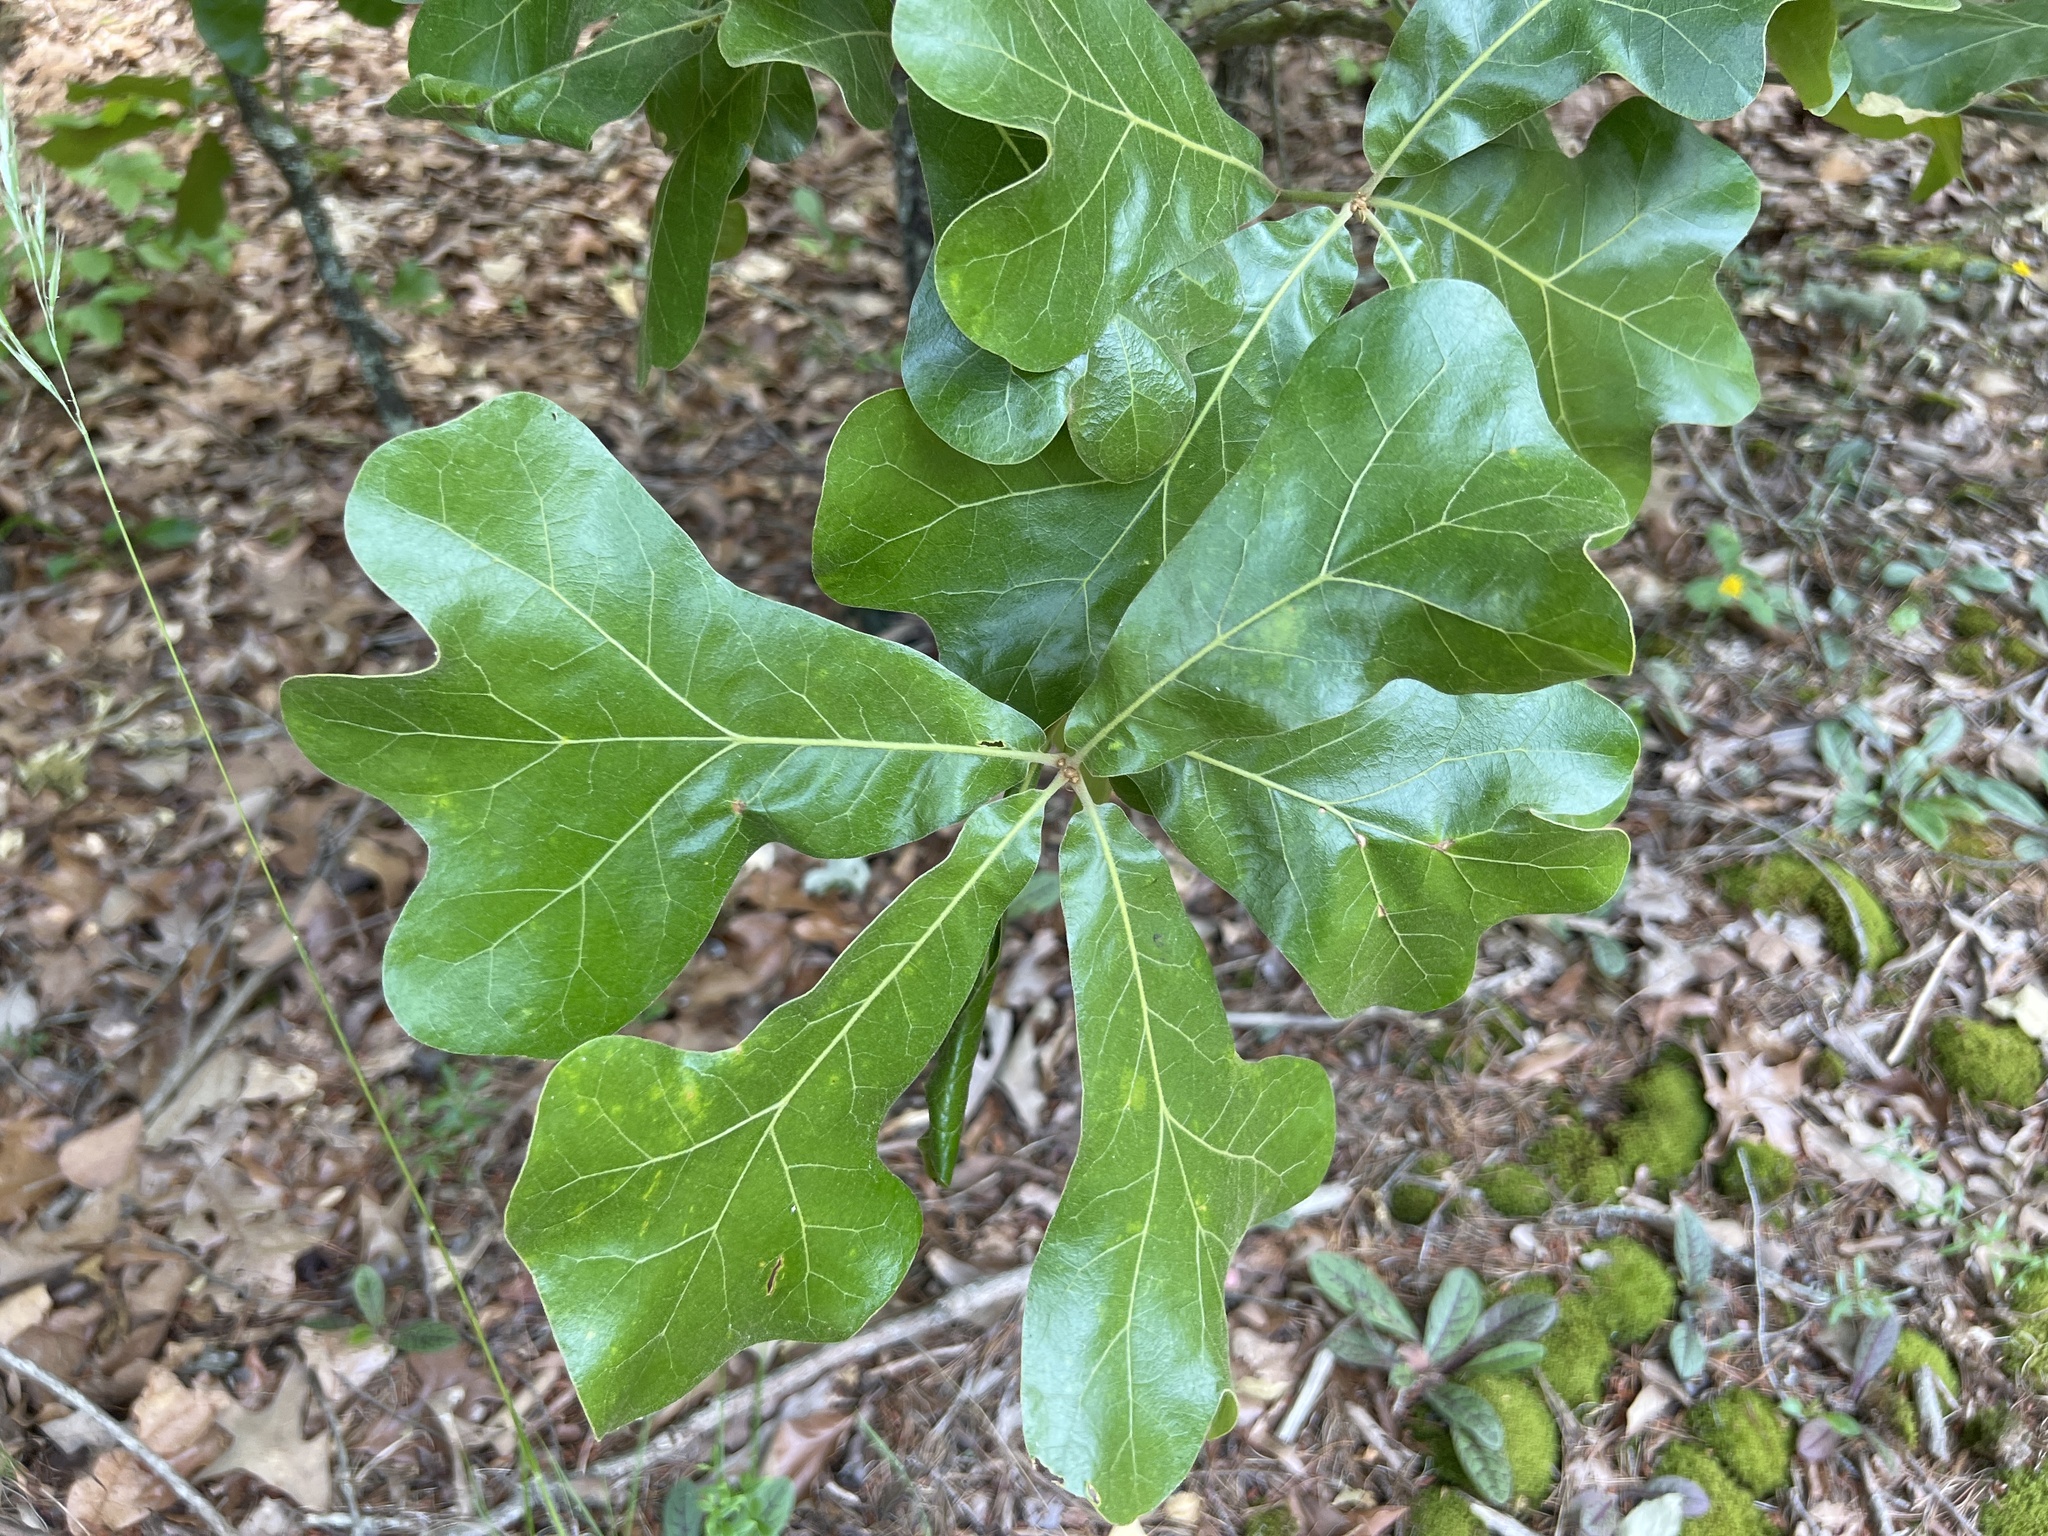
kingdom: Plantae
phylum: Tracheophyta
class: Magnoliopsida
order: Fagales
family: Fagaceae
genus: Quercus
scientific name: Quercus marilandica
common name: Blackjack oak
